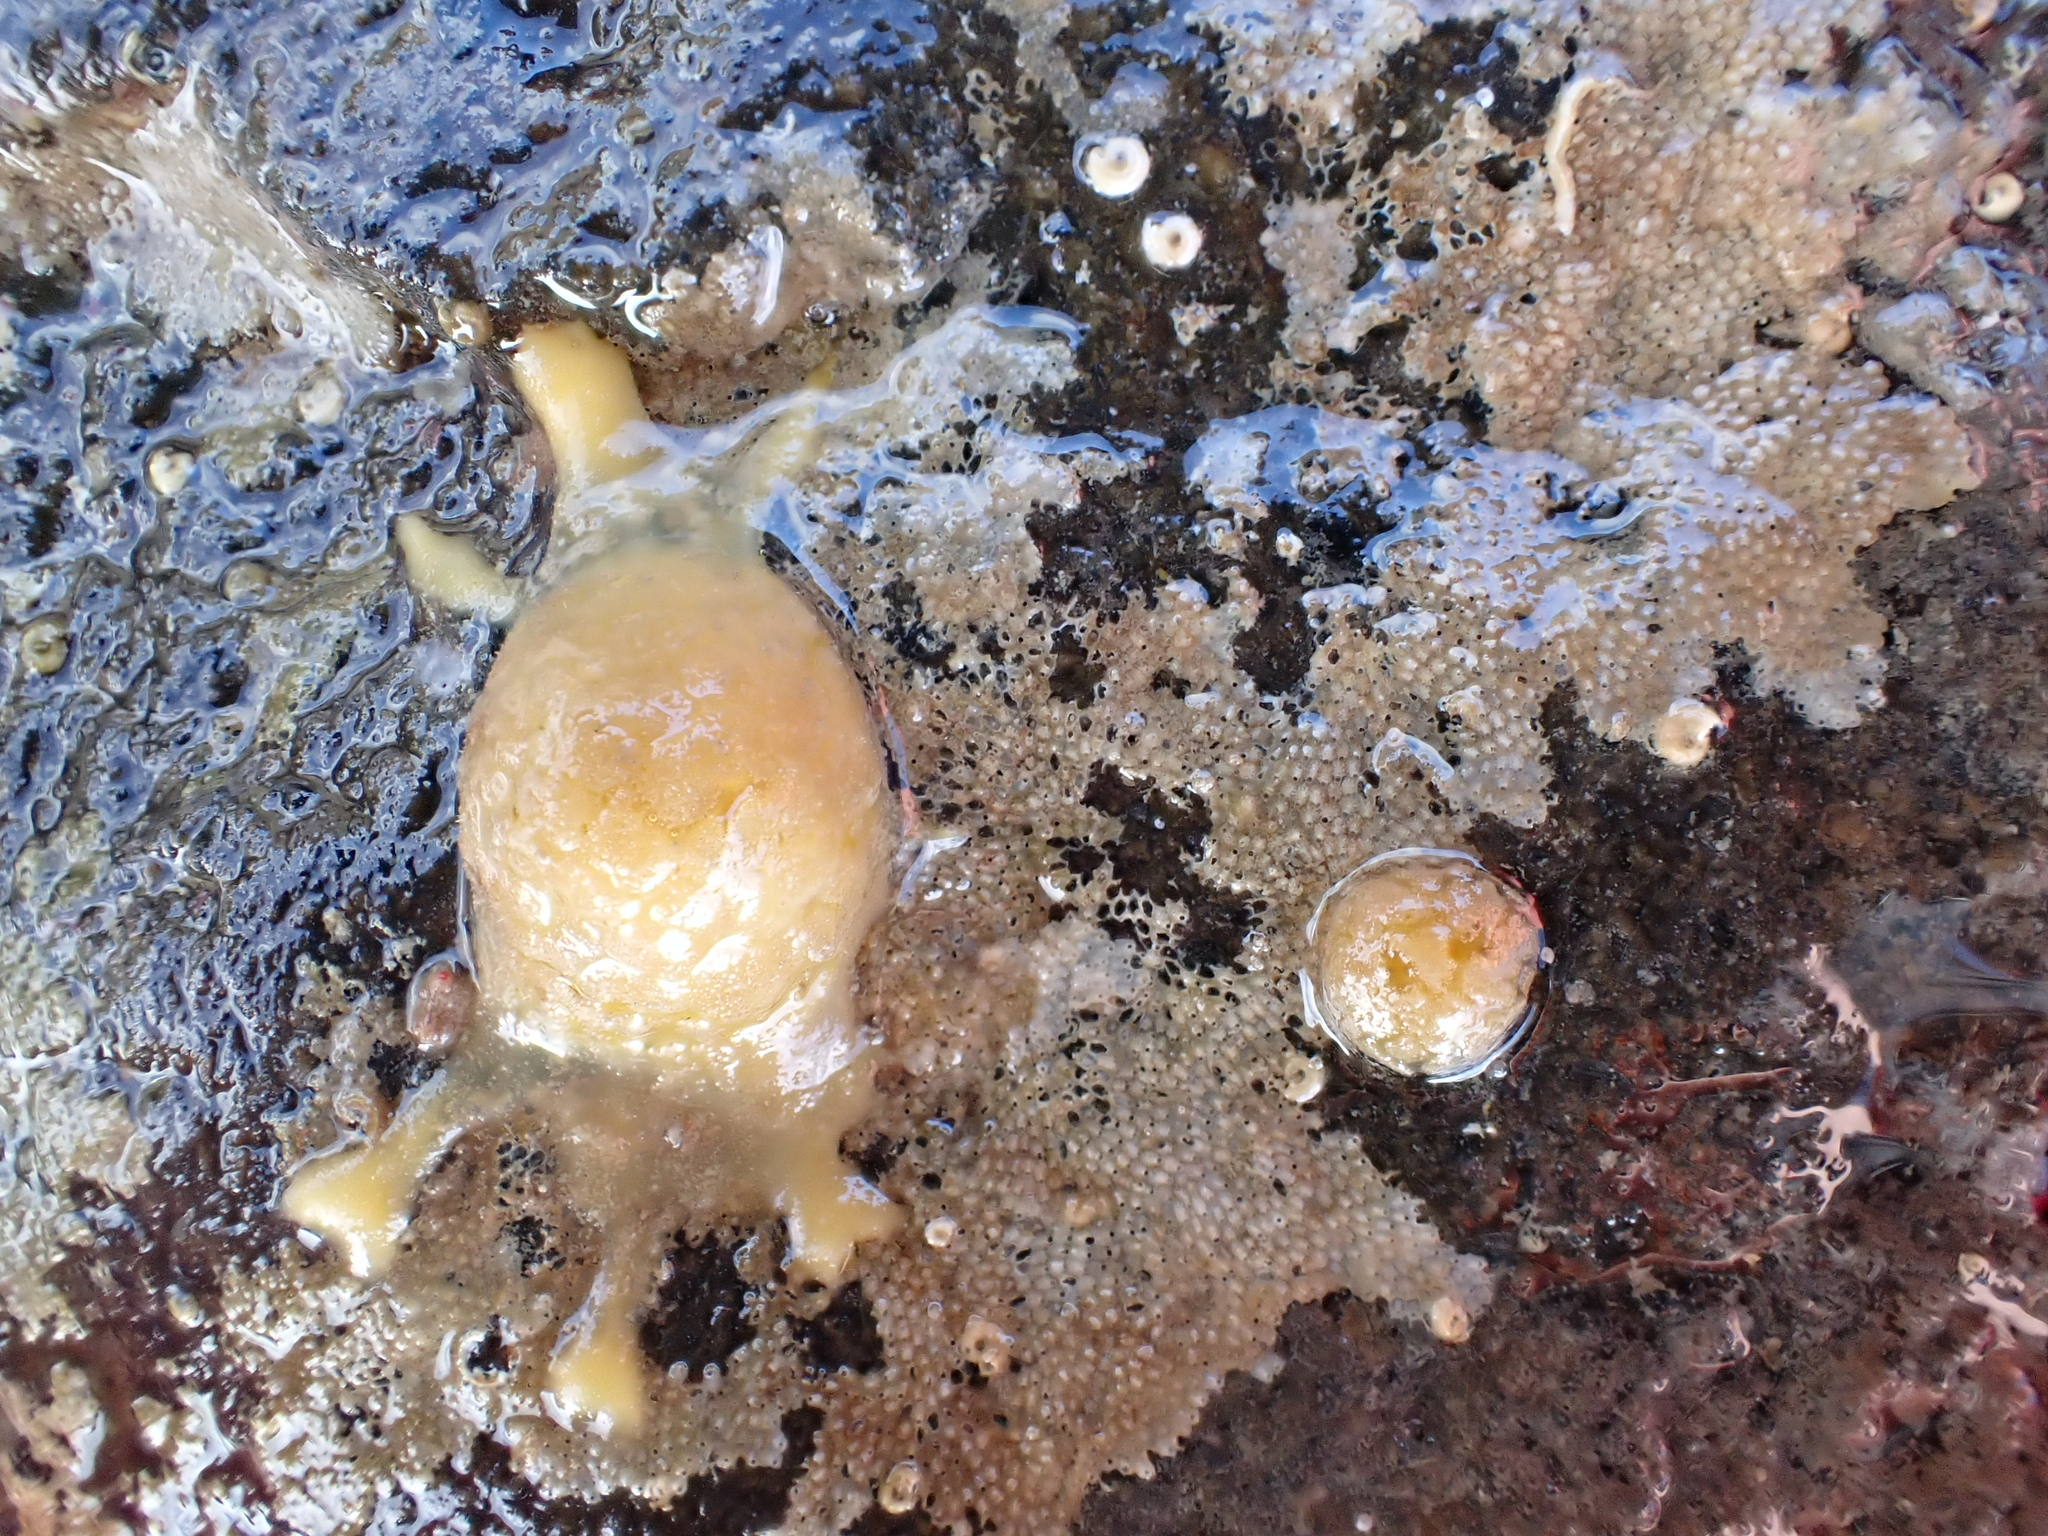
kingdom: Animalia
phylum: Porifera
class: Demospongiae
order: Tethyida
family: Tethyidae
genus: Tethya
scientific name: Tethya stolonifera
